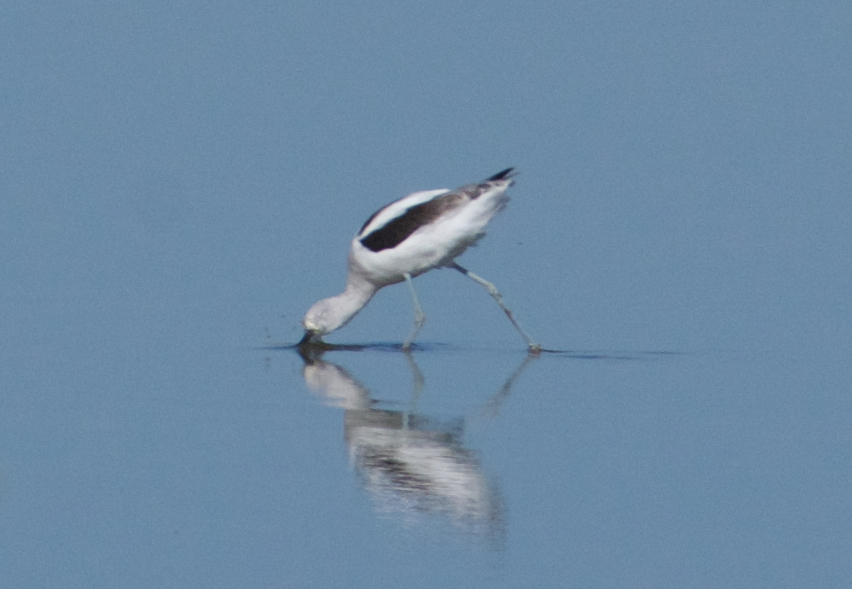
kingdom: Animalia
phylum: Chordata
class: Aves
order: Charadriiformes
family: Recurvirostridae
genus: Recurvirostra
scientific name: Recurvirostra americana
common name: American avocet
